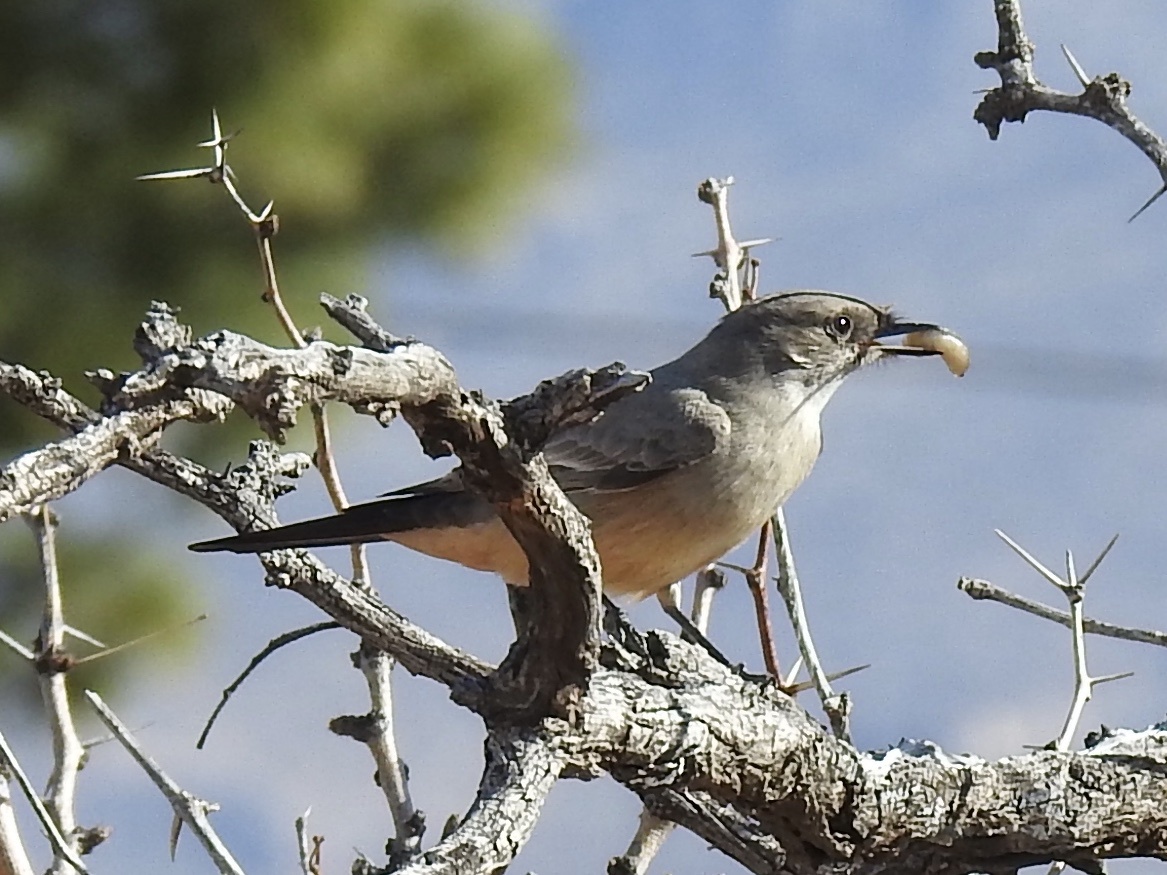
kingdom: Animalia
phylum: Chordata
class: Aves
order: Passeriformes
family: Tyrannidae
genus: Sayornis
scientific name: Sayornis saya
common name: Say's phoebe
